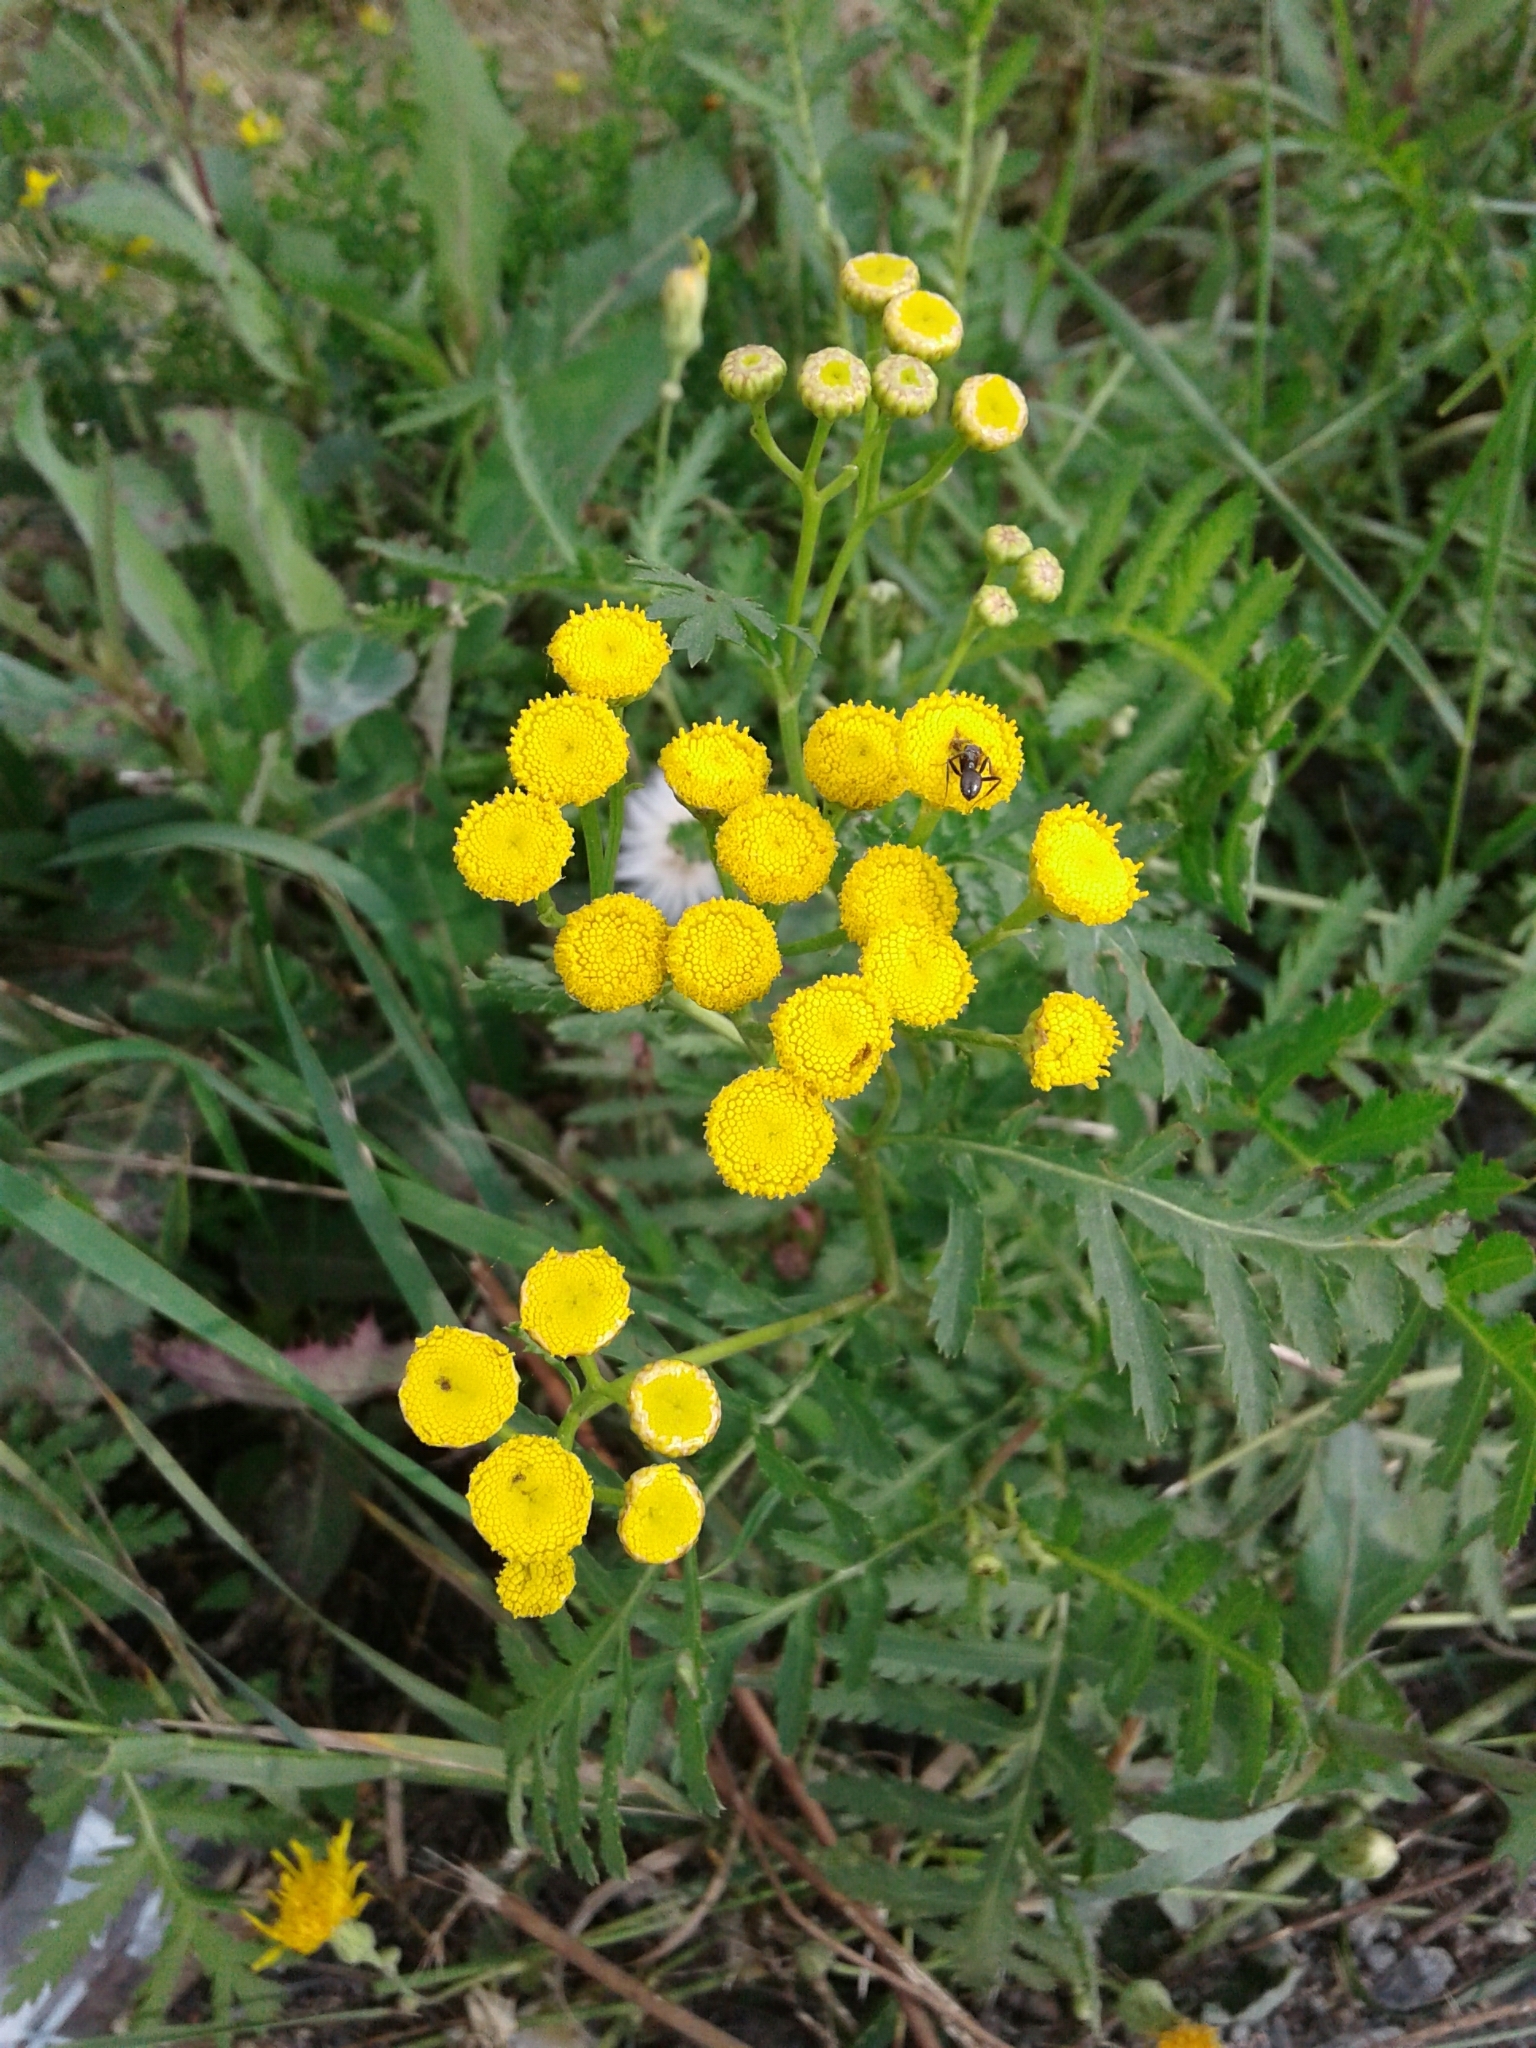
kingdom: Plantae
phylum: Tracheophyta
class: Magnoliopsida
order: Asterales
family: Asteraceae
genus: Tanacetum
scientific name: Tanacetum vulgare
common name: Common tansy
